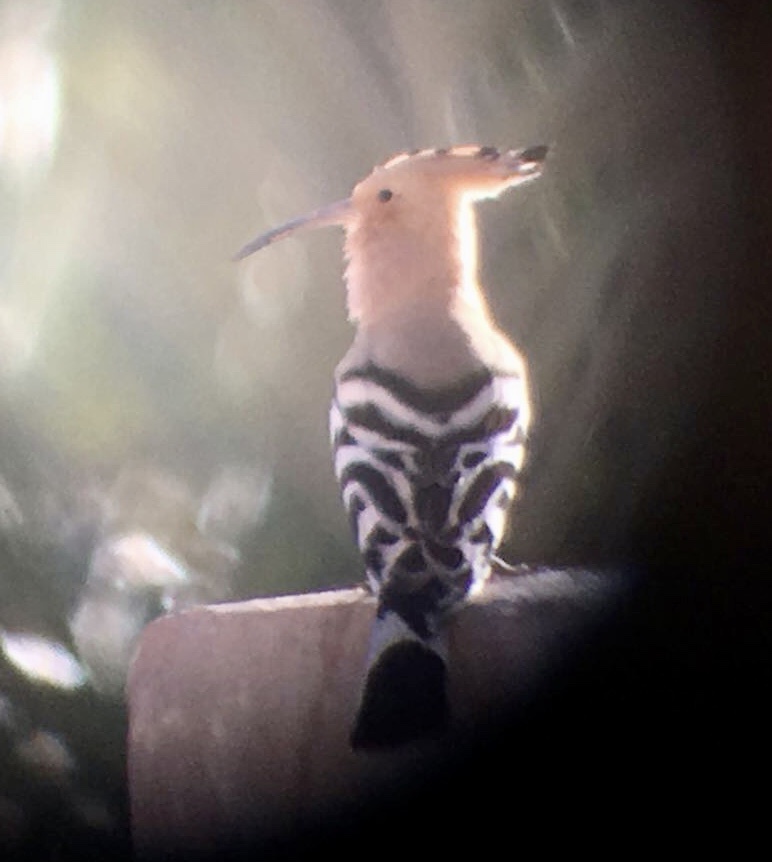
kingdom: Animalia
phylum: Chordata
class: Aves
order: Bucerotiformes
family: Upupidae
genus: Upupa
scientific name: Upupa epops
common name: Eurasian hoopoe
